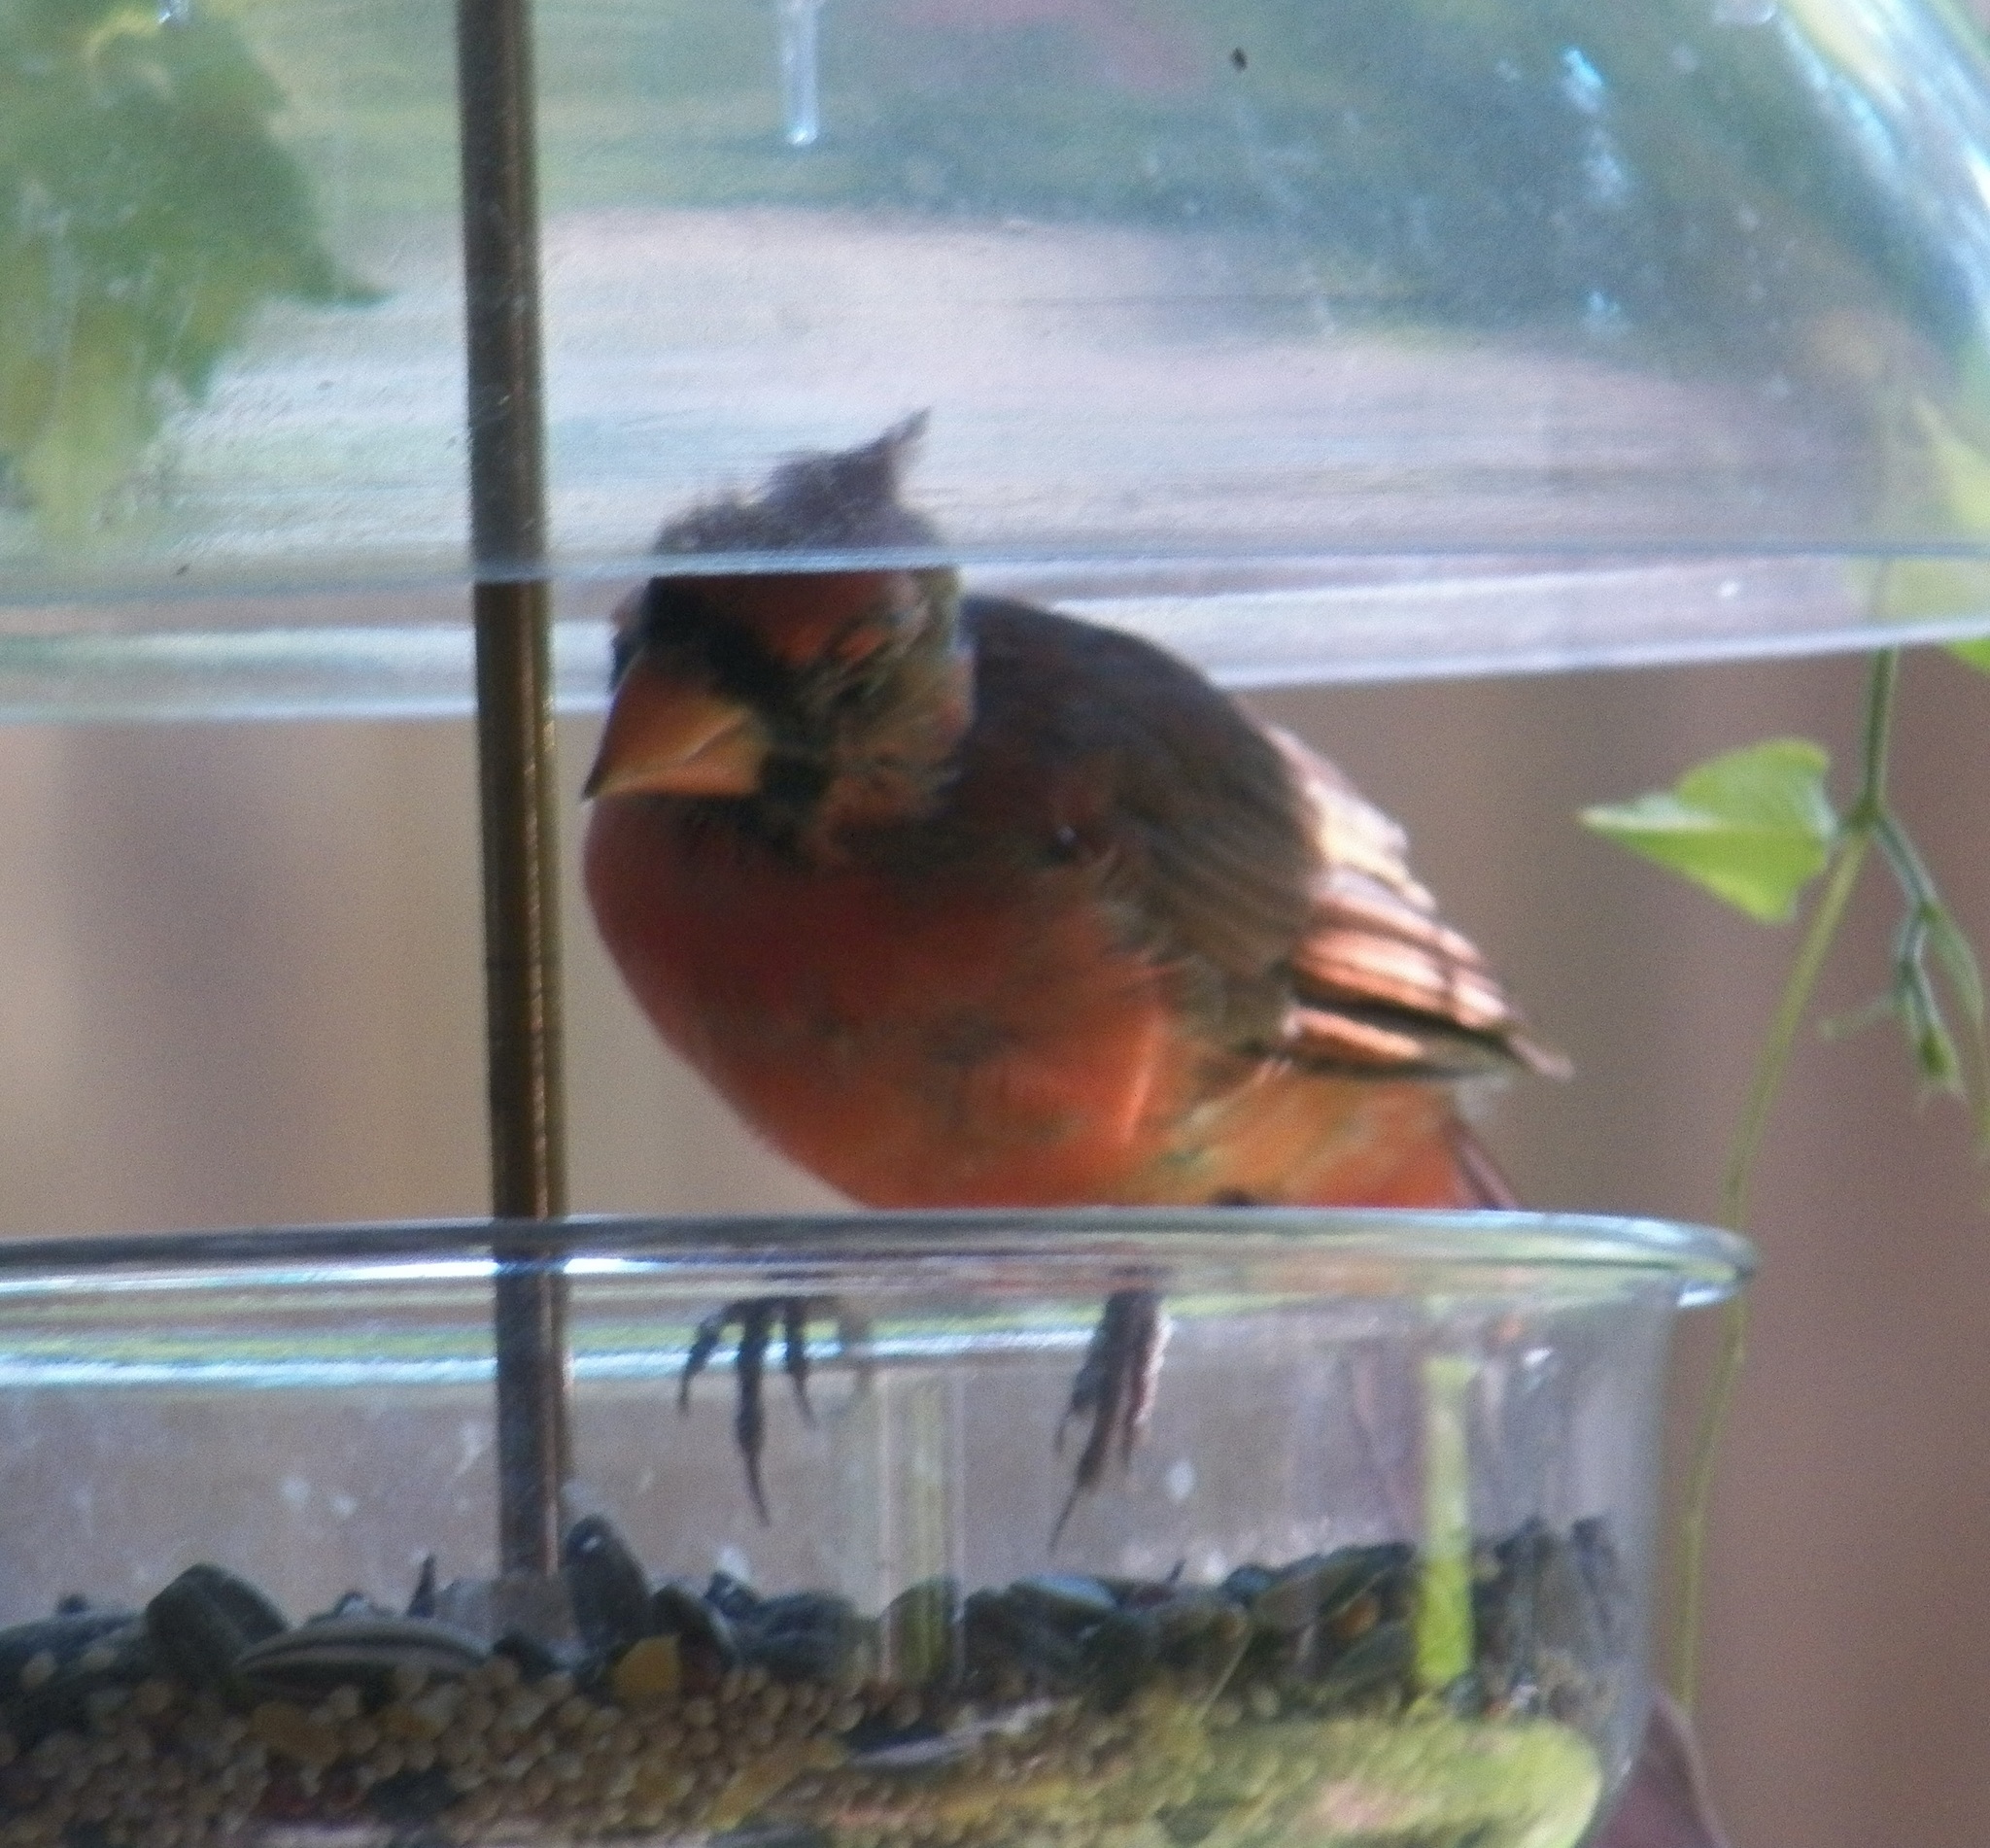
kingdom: Animalia
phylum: Chordata
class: Aves
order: Passeriformes
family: Cardinalidae
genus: Cardinalis
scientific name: Cardinalis cardinalis
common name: Northern cardinal
